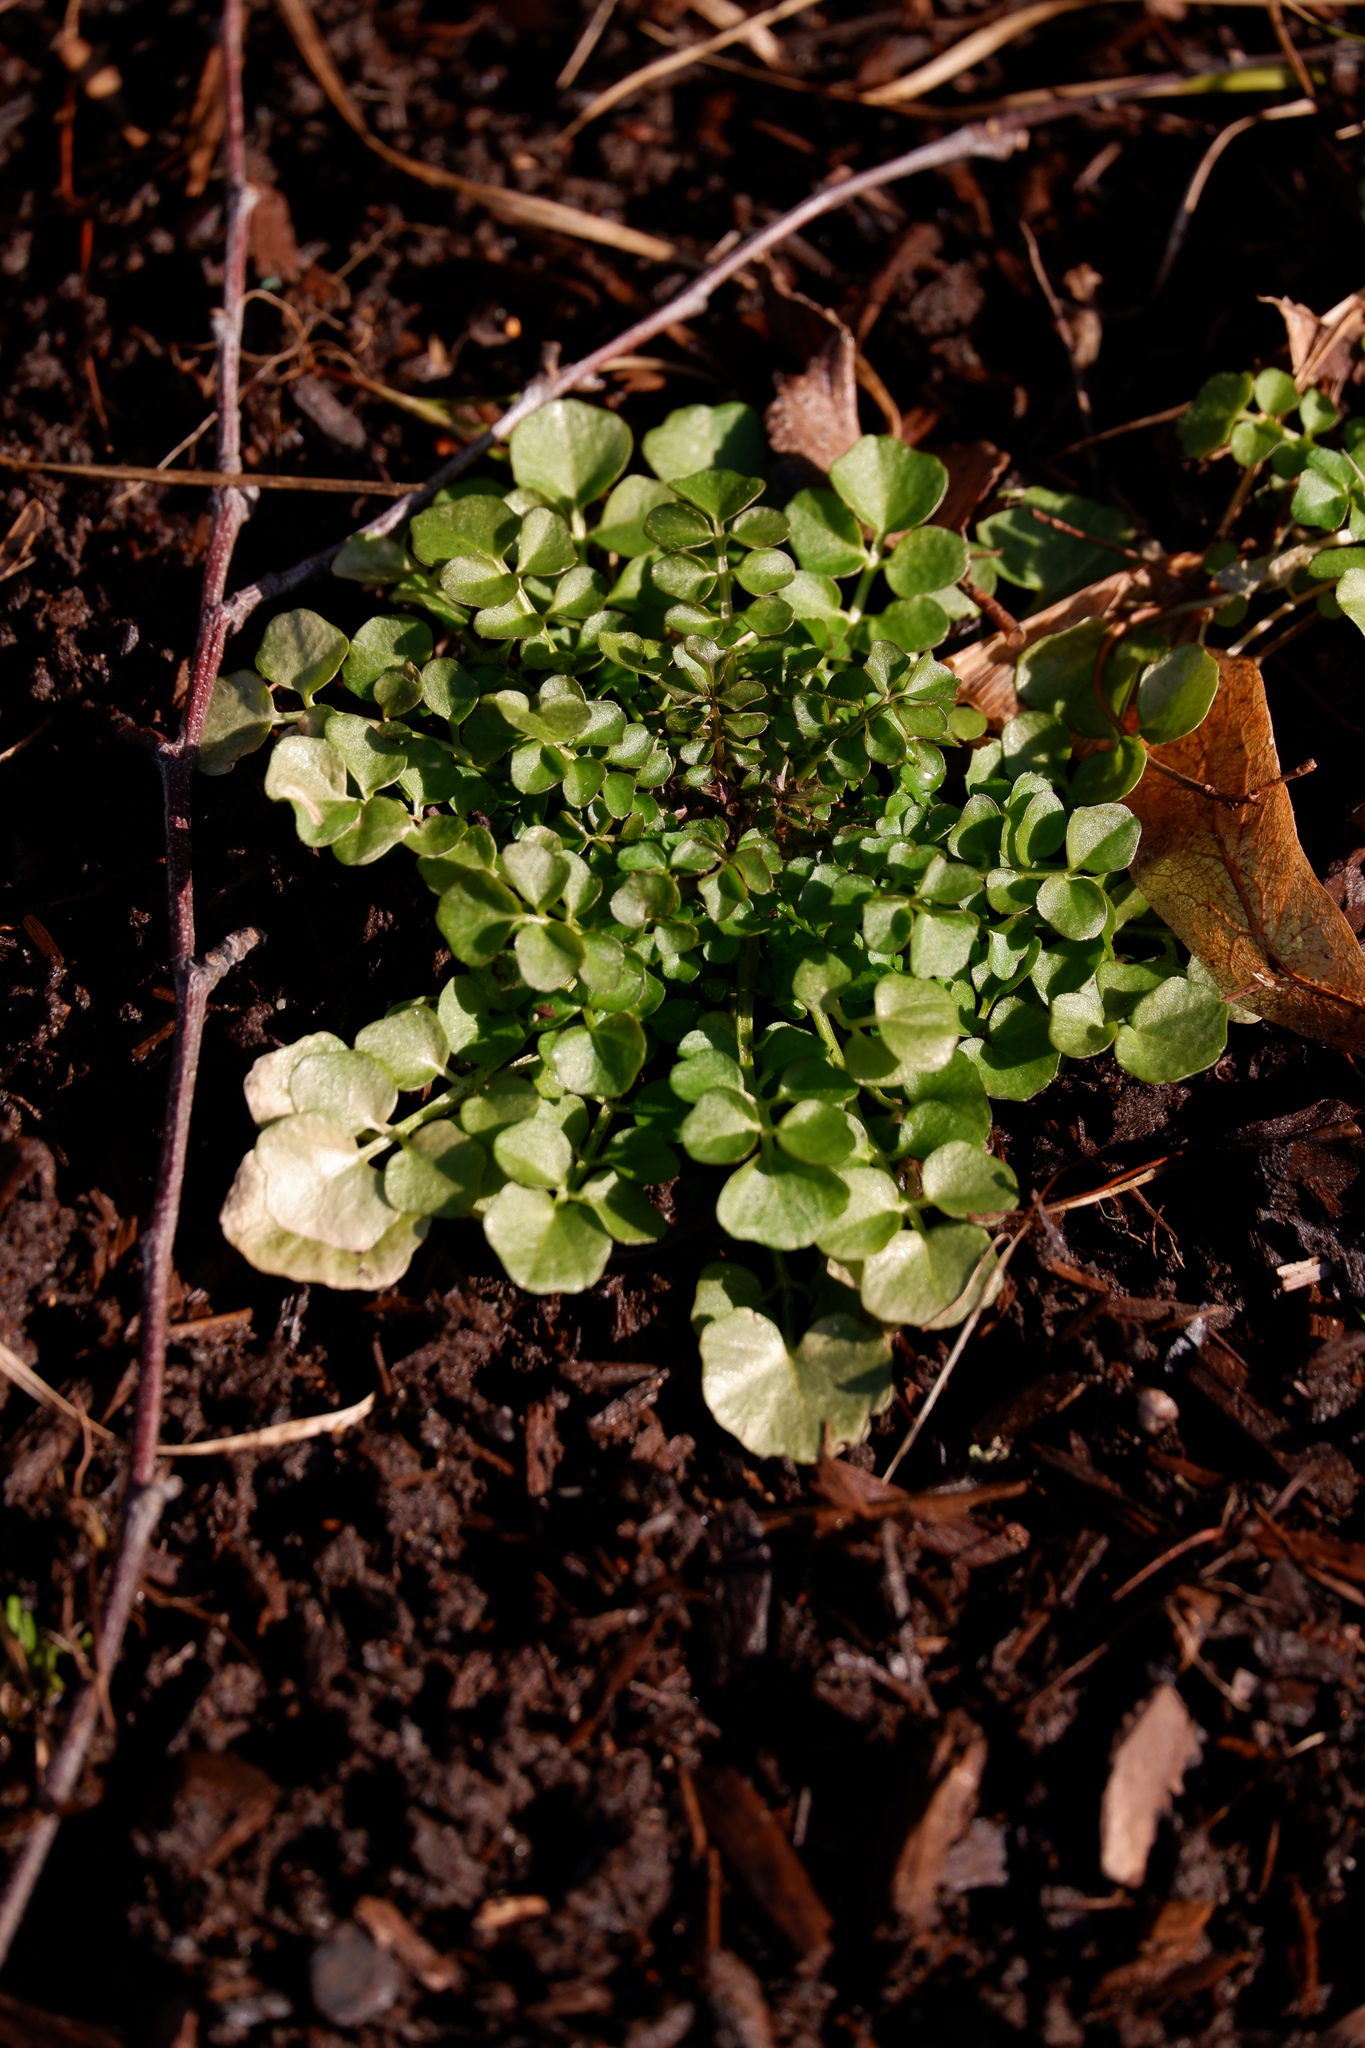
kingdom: Plantae
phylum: Tracheophyta
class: Magnoliopsida
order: Brassicales
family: Brassicaceae
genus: Cardamine
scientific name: Cardamine hirsuta
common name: Hairy bittercress
